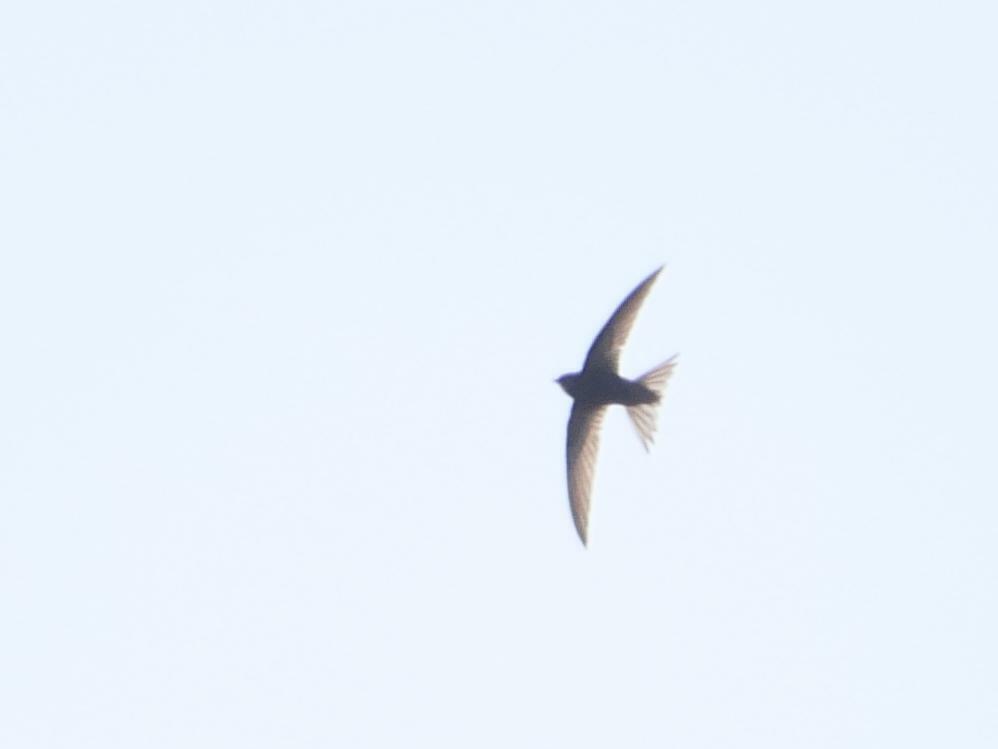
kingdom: Animalia
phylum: Chordata
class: Aves
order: Apodiformes
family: Apodidae
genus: Apus
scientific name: Apus apus
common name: Common swift
